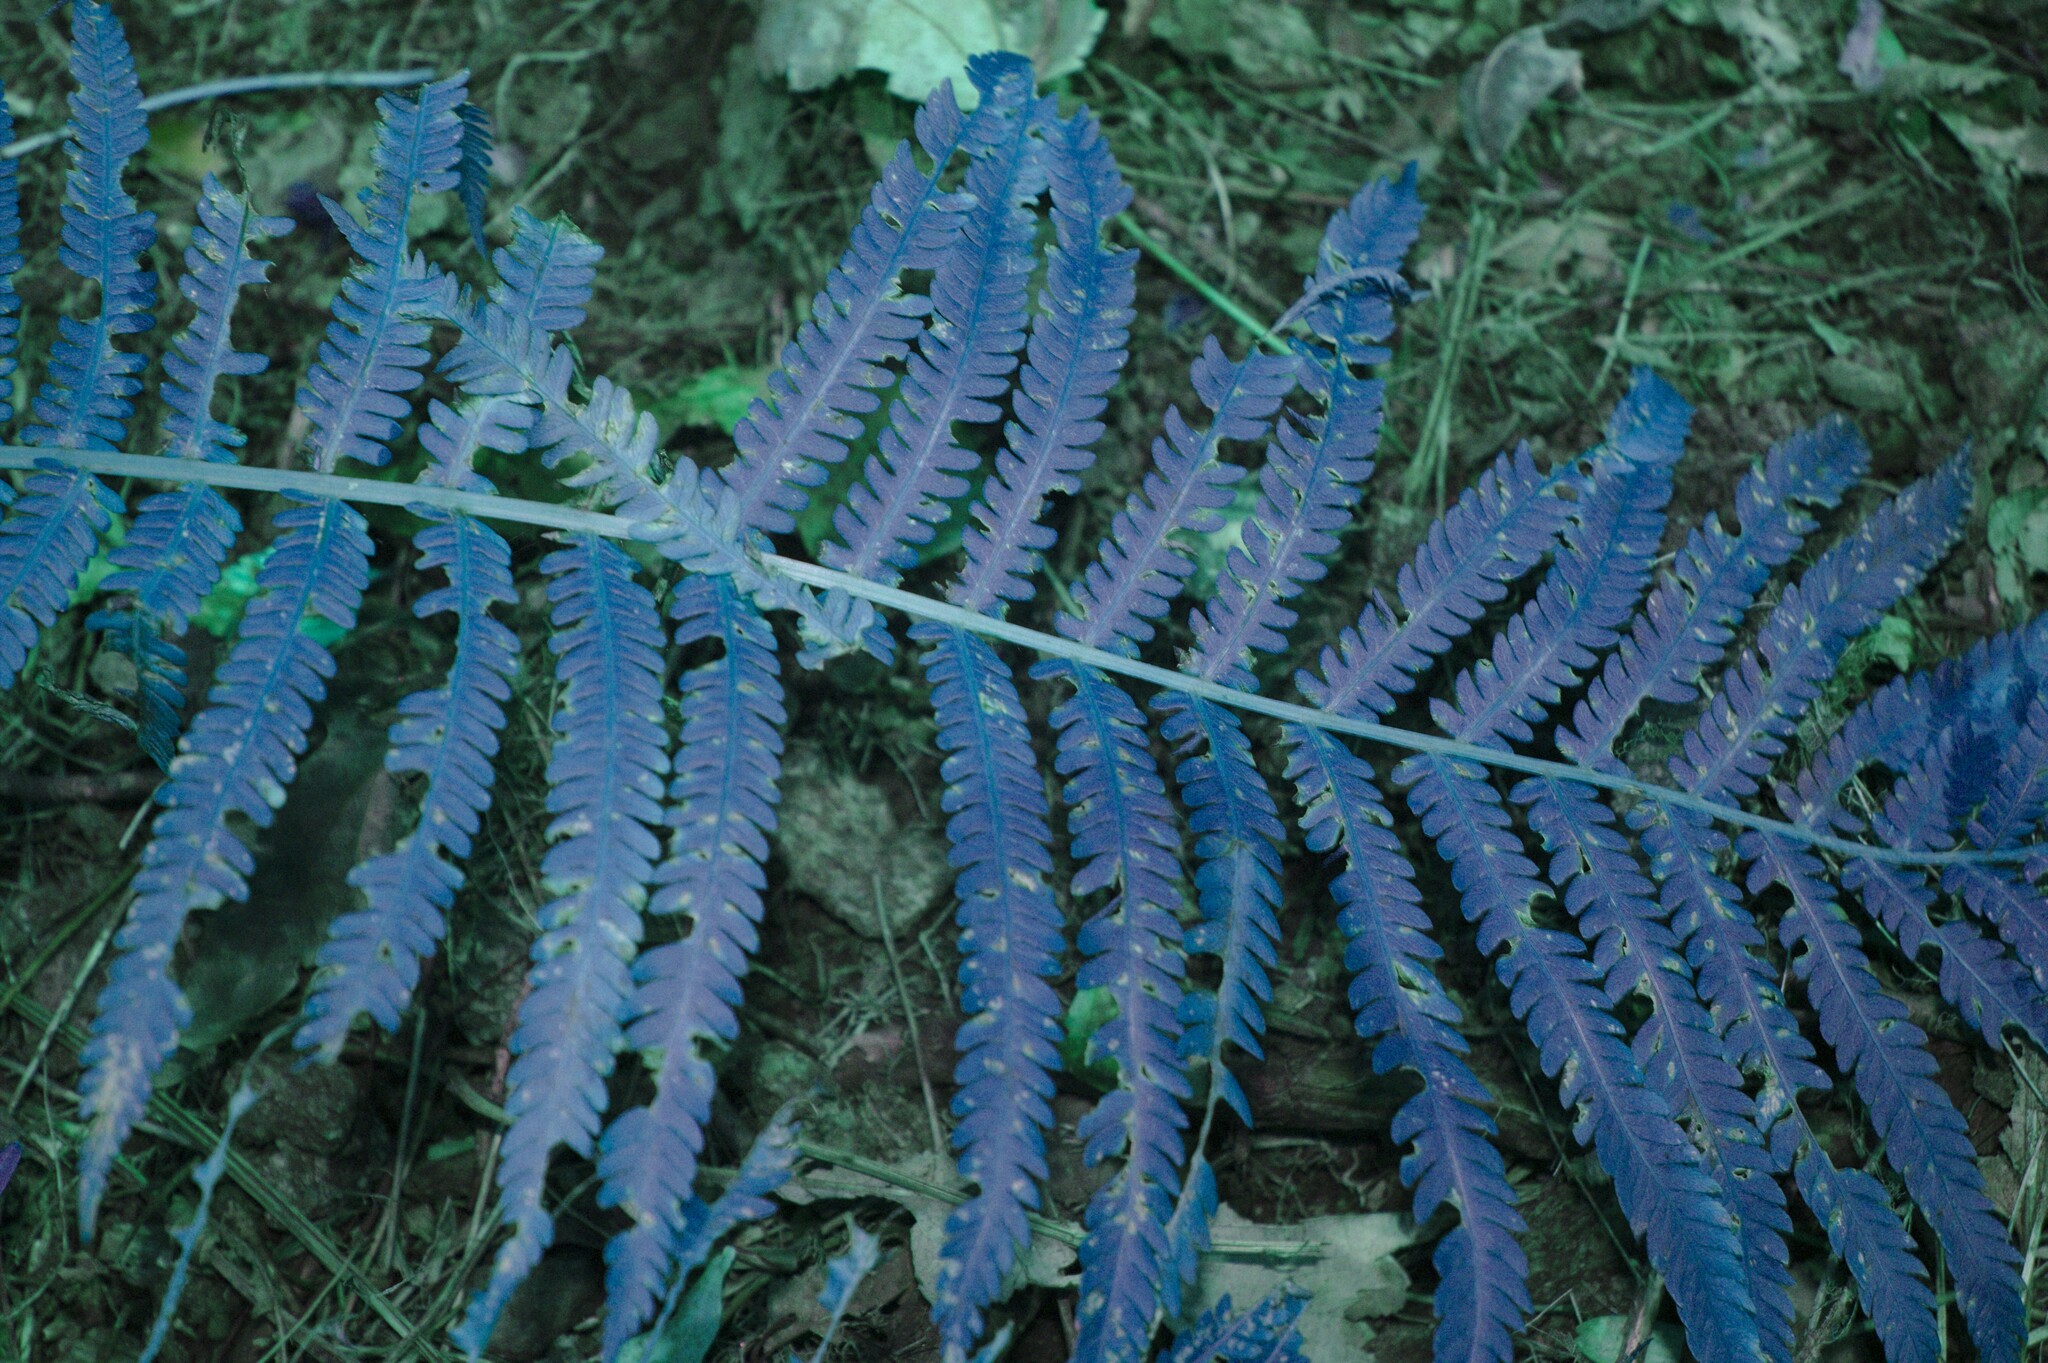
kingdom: Plantae
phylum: Tracheophyta
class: Polypodiopsida
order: Polypodiales
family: Onocleaceae
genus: Matteuccia
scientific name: Matteuccia struthiopteris
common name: Ostrich fern
